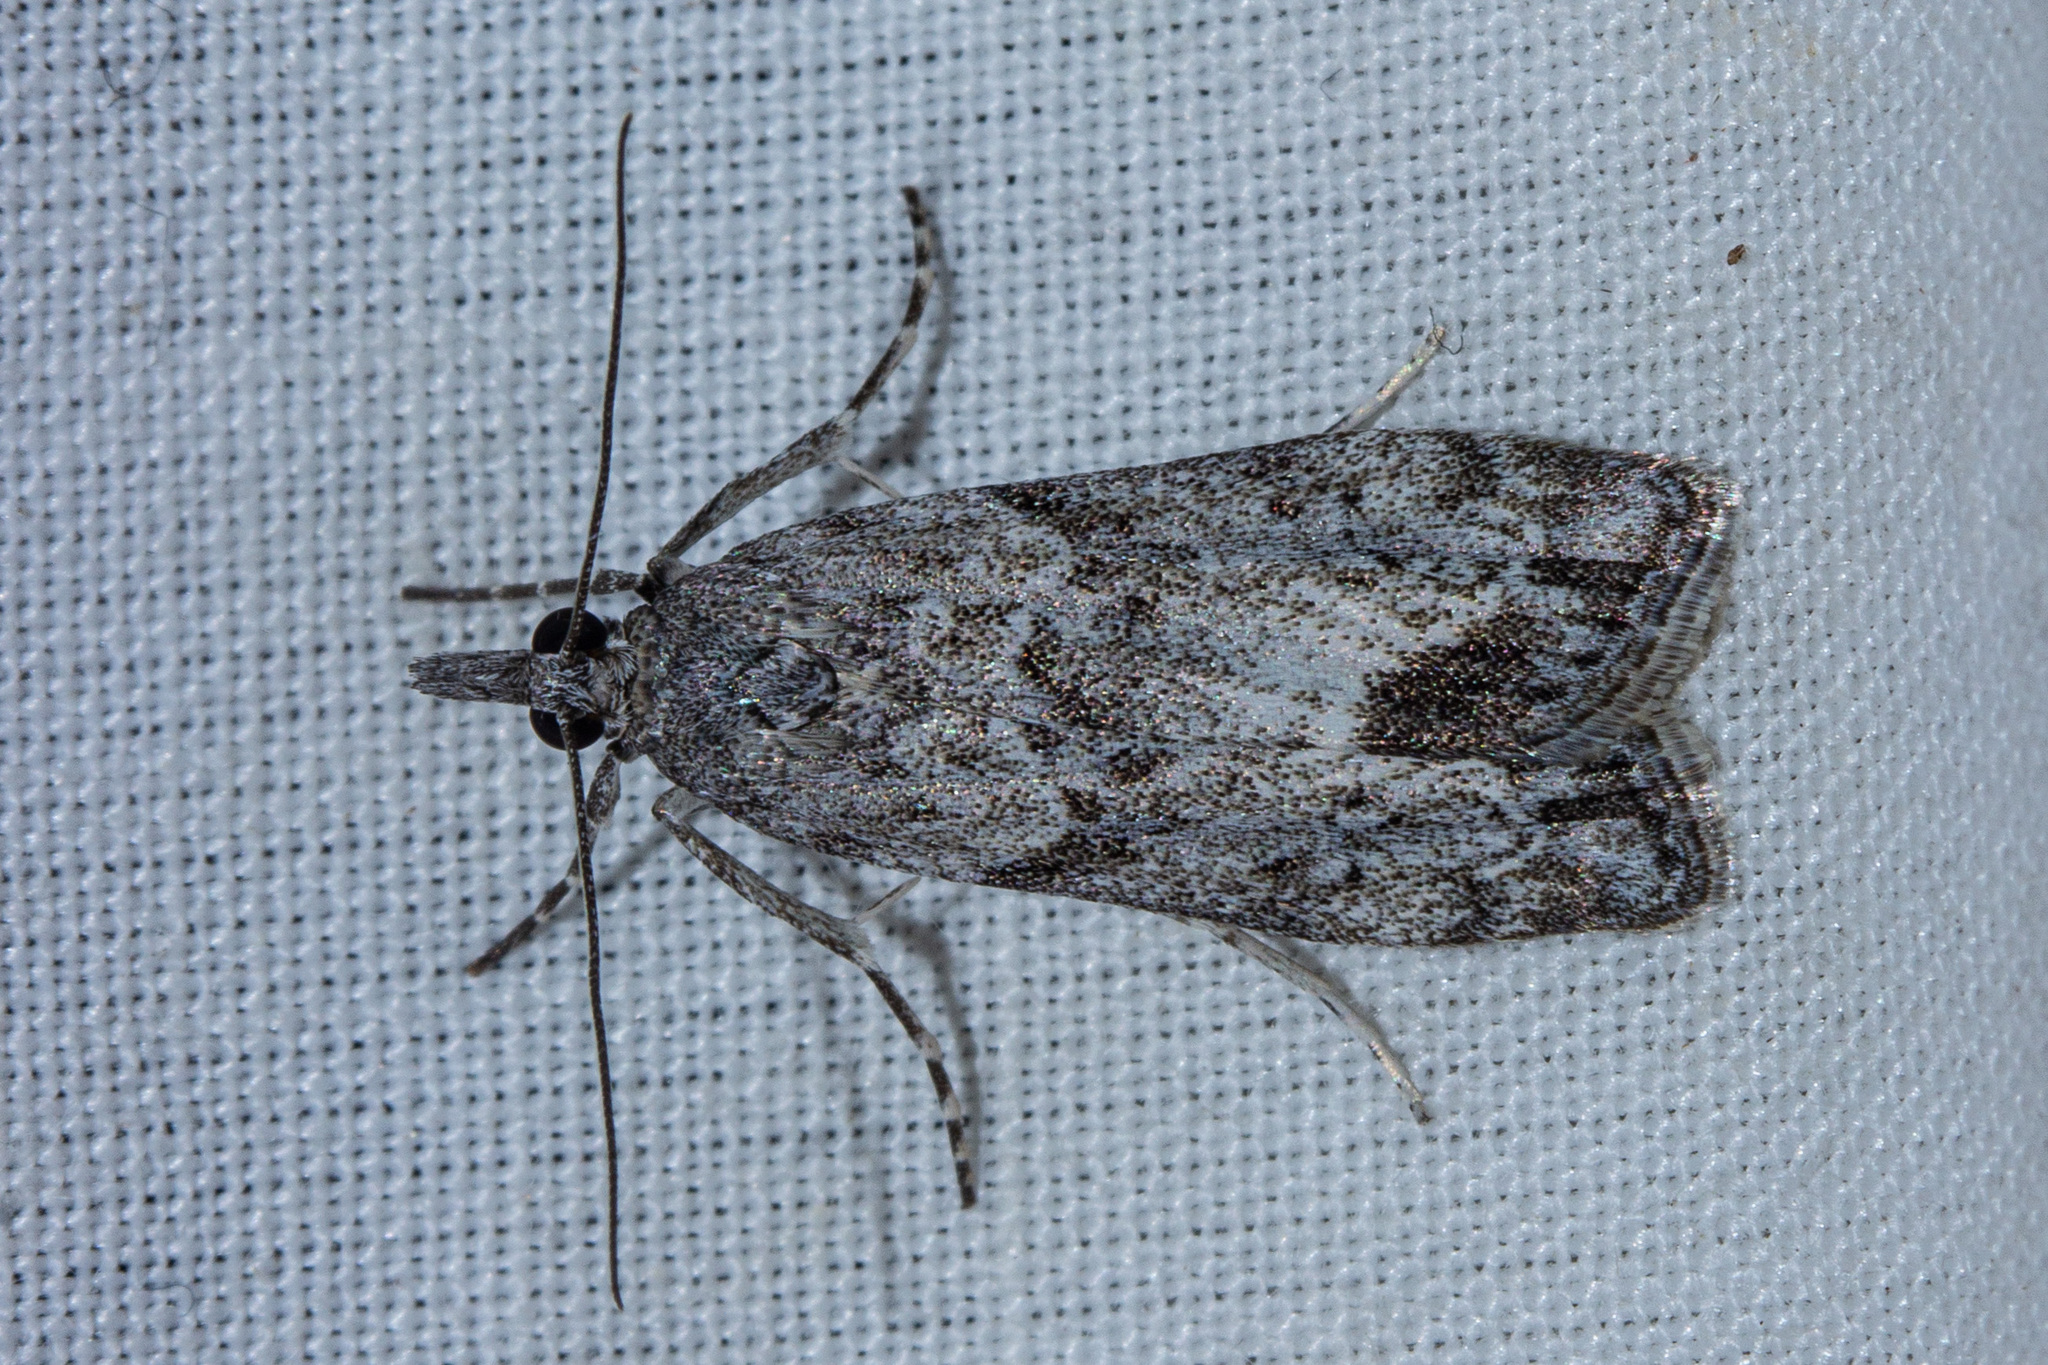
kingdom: Animalia
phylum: Arthropoda
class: Insecta
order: Lepidoptera
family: Crambidae
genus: Eudonia
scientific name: Eudonia rakaiensis
